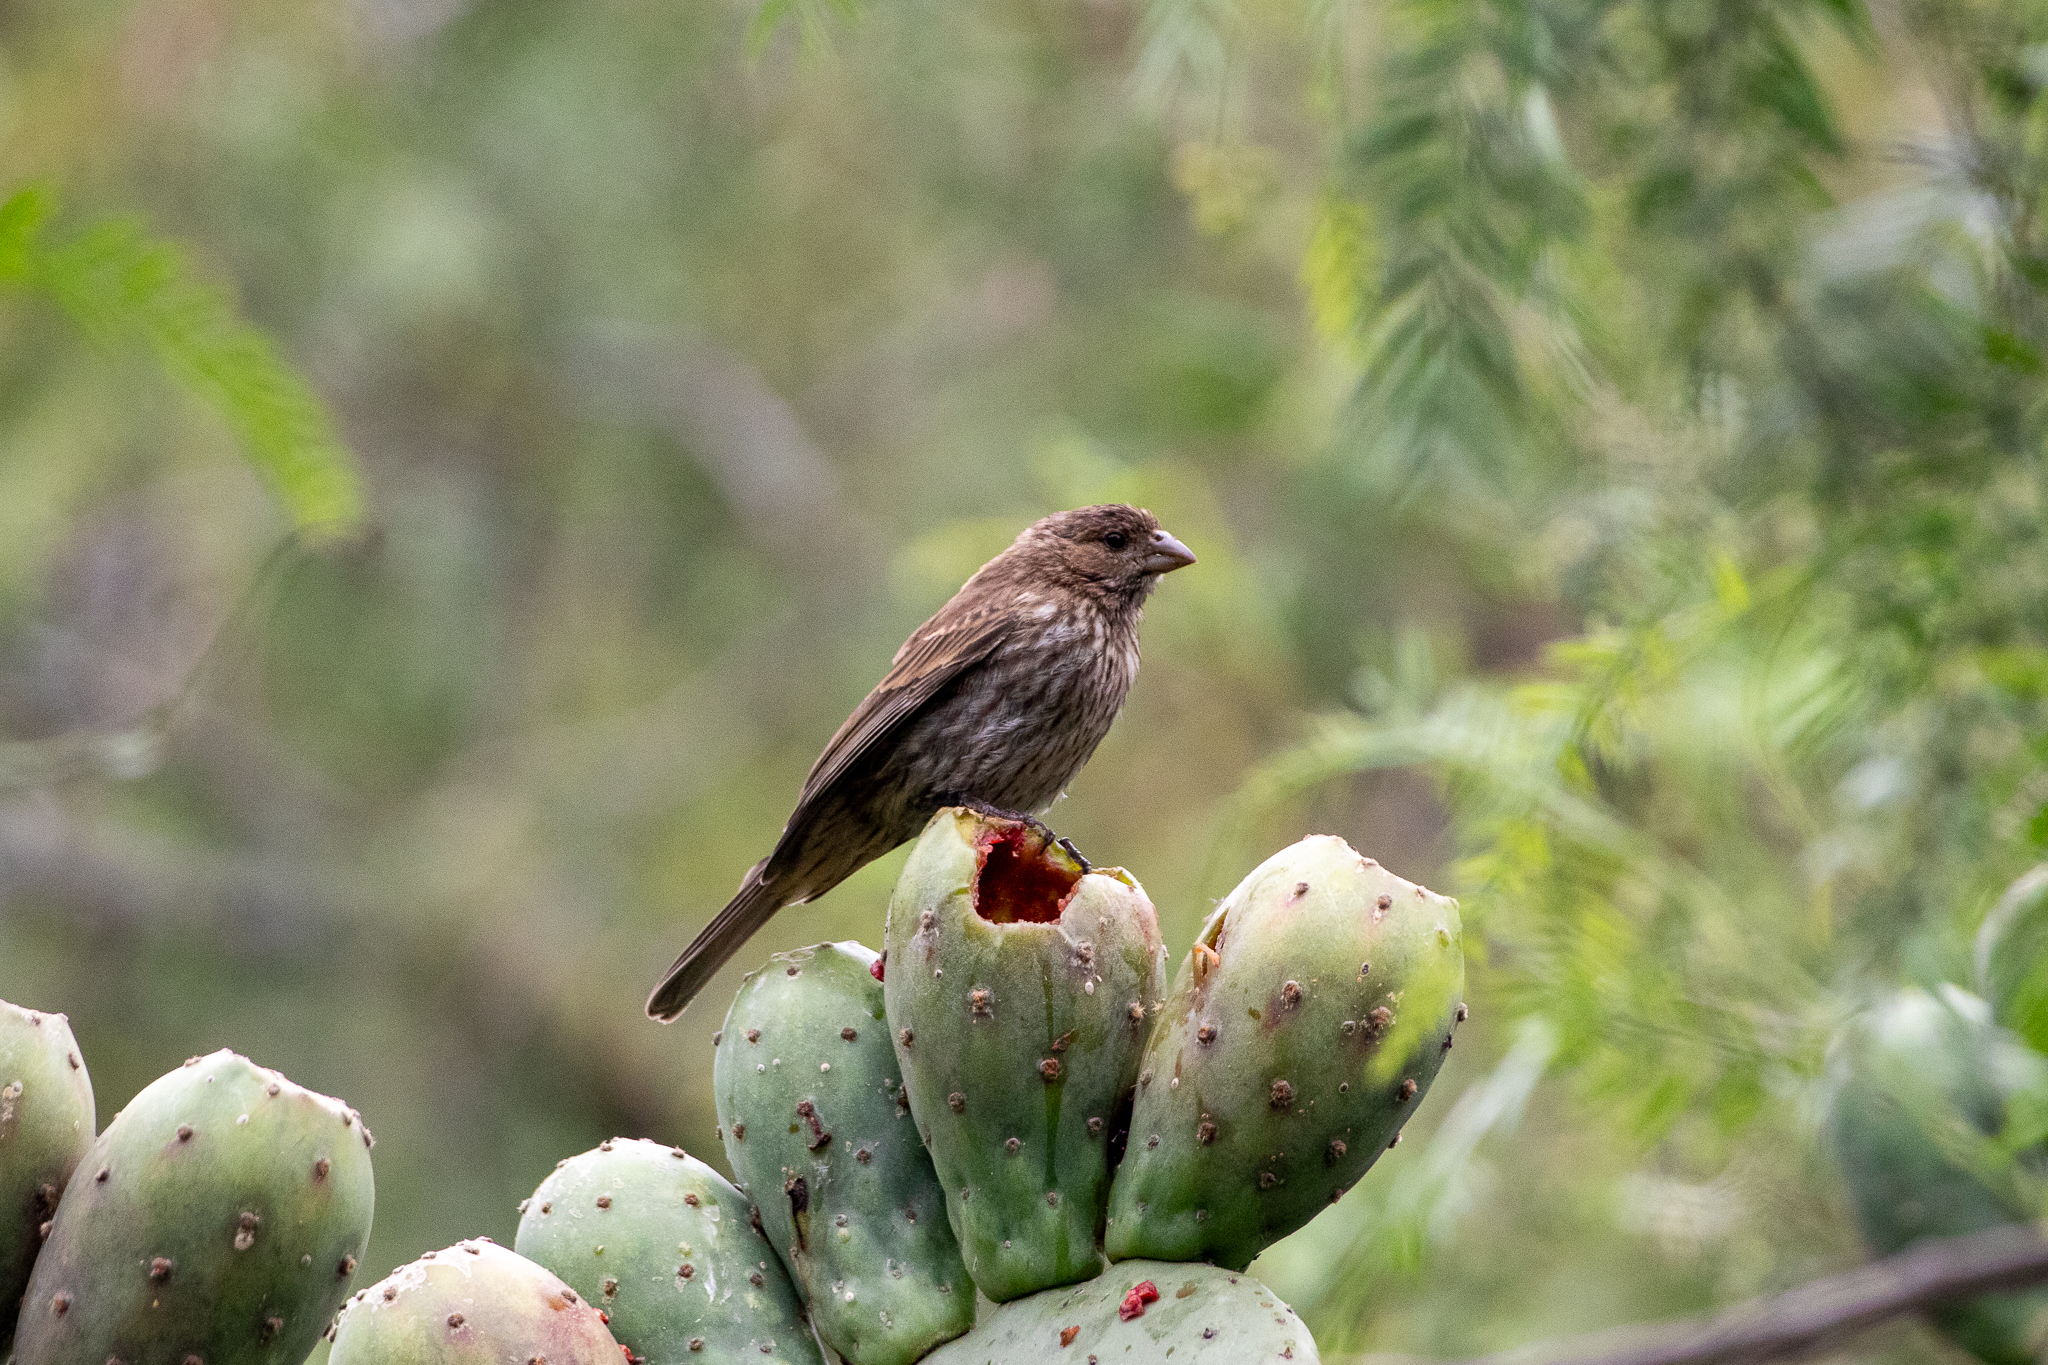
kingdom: Animalia
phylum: Chordata
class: Aves
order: Passeriformes
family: Fringillidae
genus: Haemorhous
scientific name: Haemorhous mexicanus
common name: House finch
